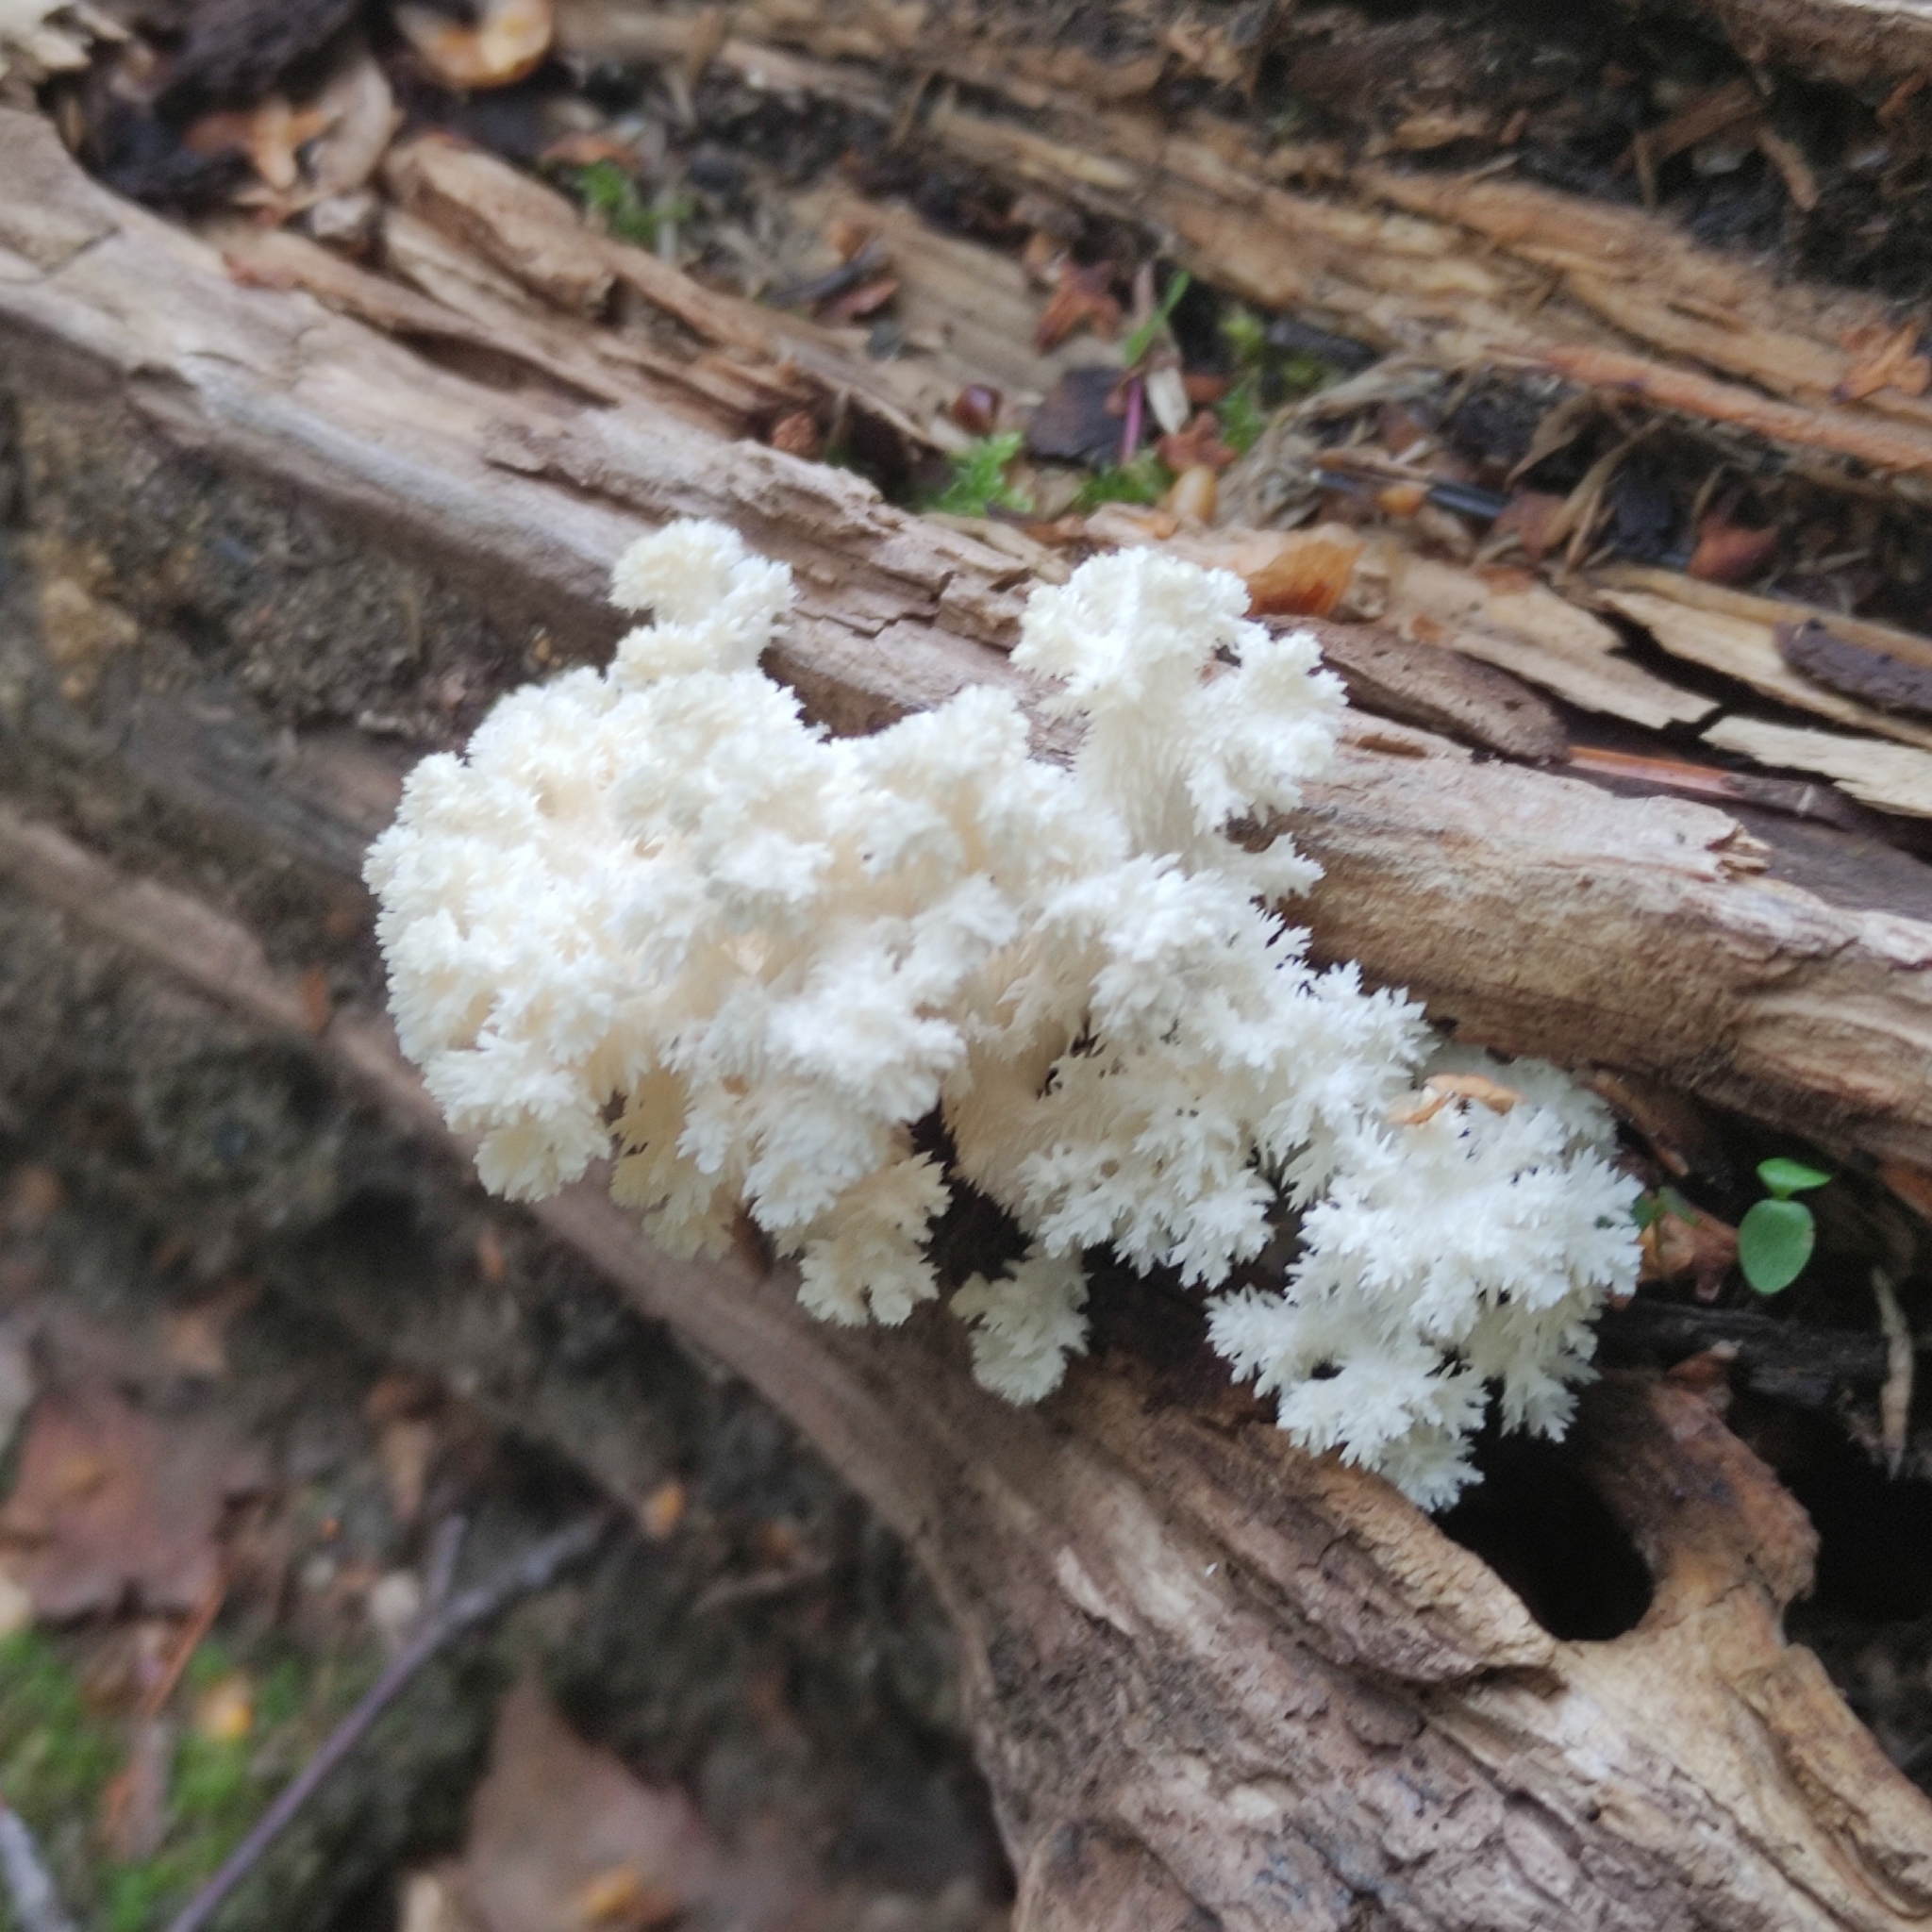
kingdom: Fungi
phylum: Basidiomycota
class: Agaricomycetes
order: Russulales
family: Hericiaceae
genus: Hericium
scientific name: Hericium coralloides
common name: Coral tooth
